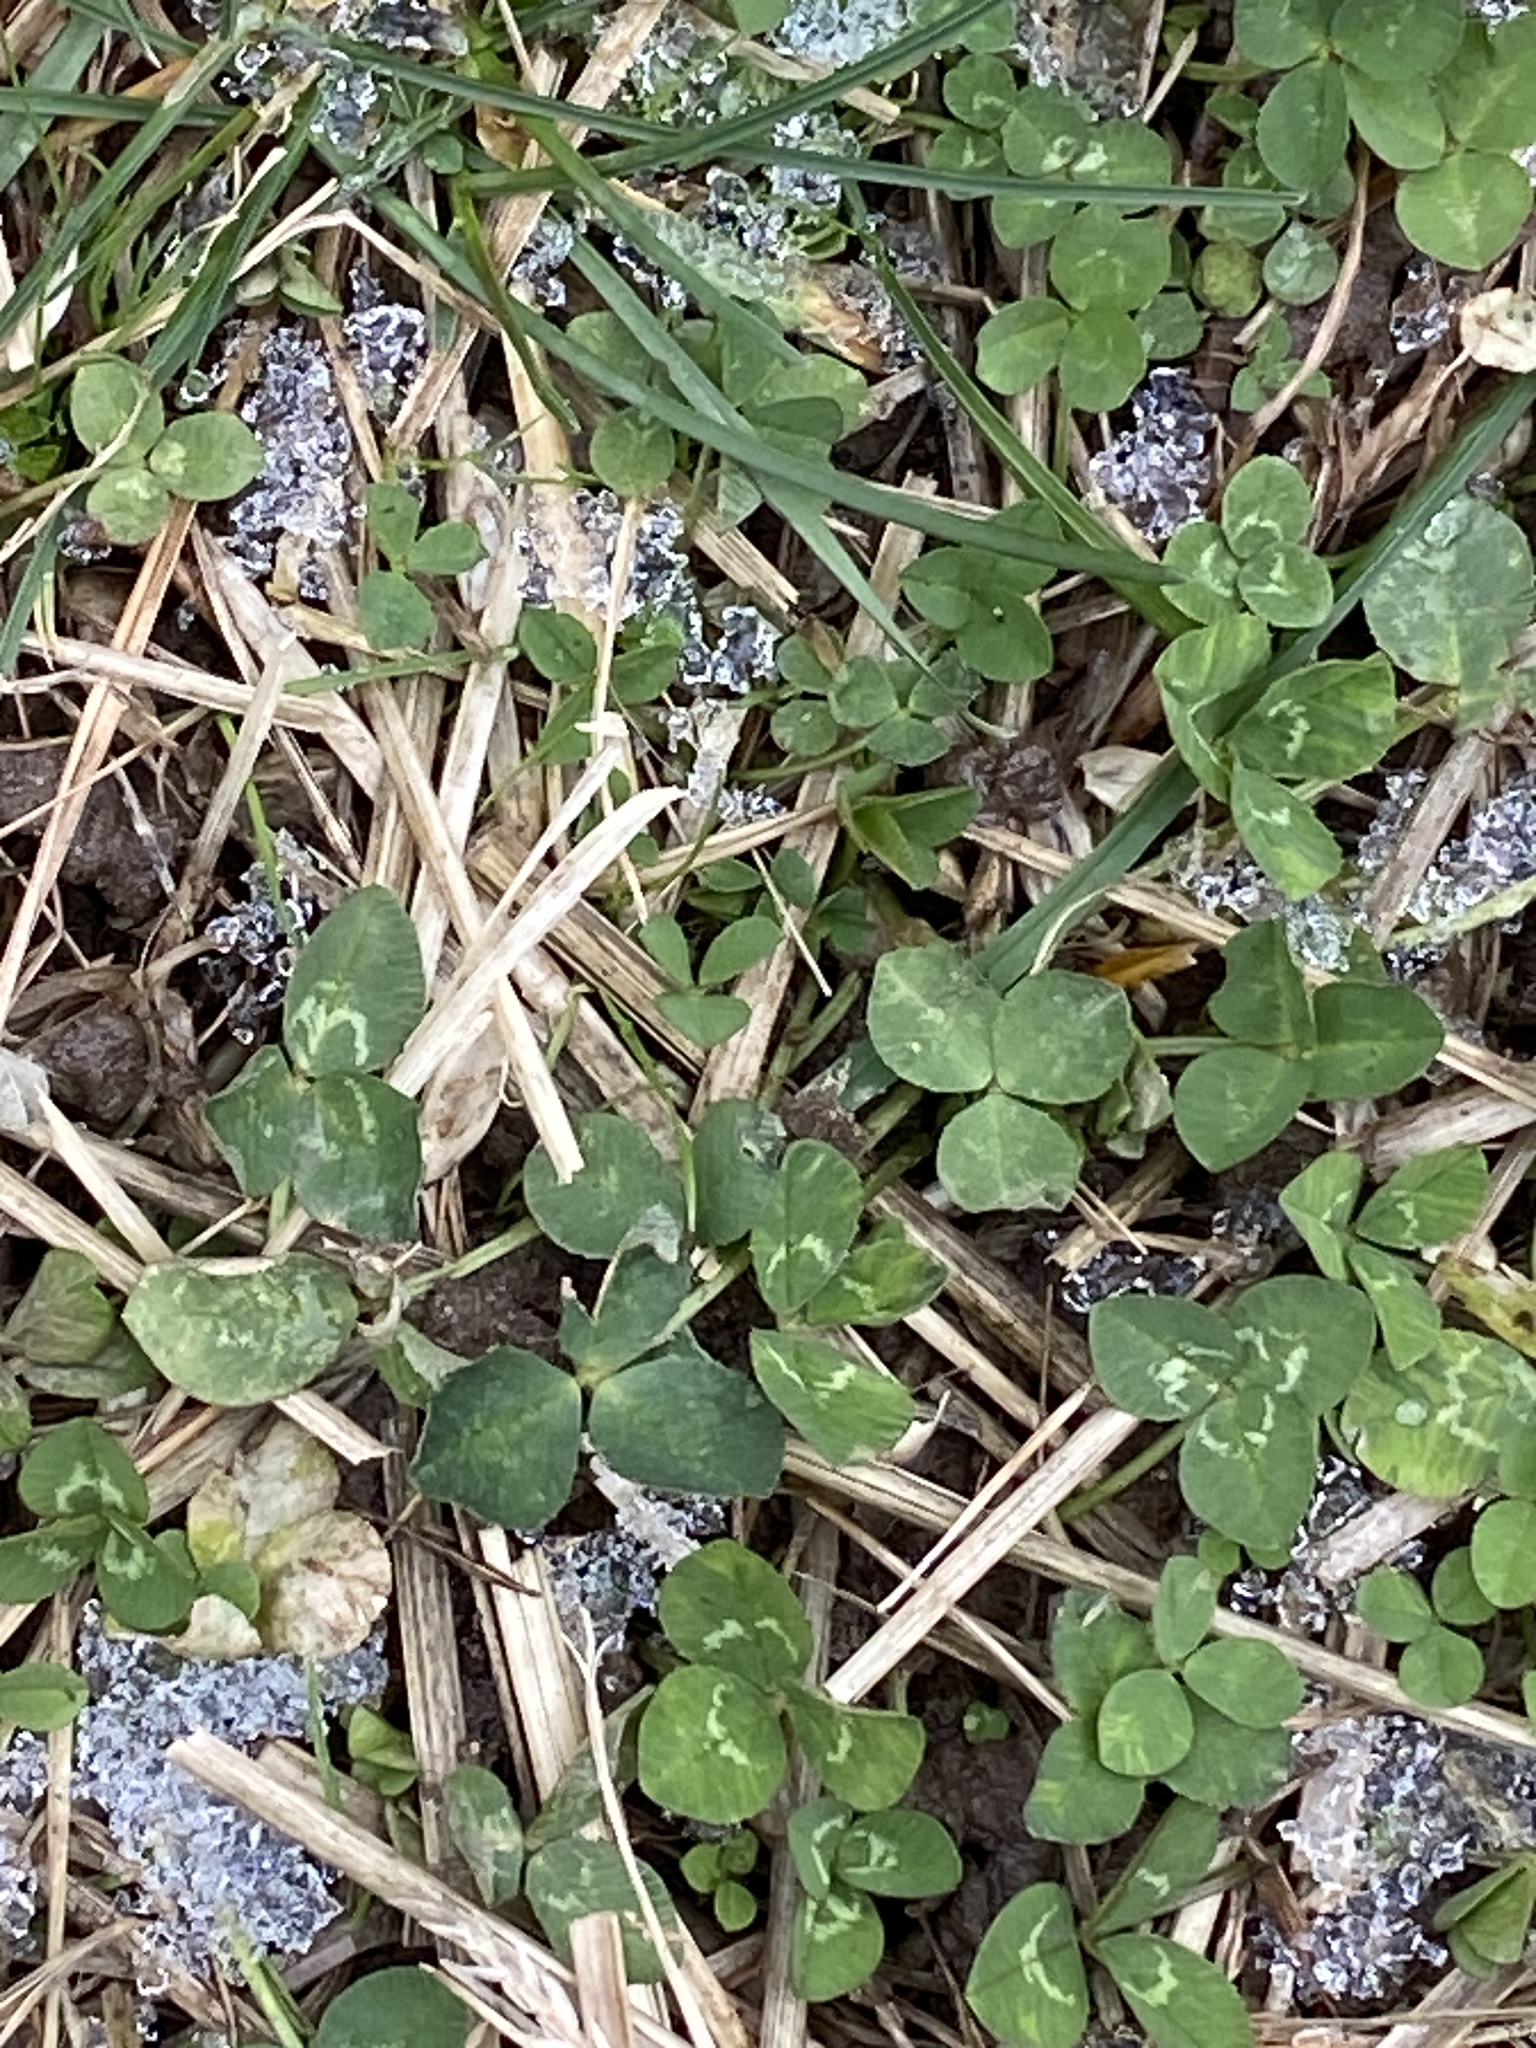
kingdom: Plantae
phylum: Tracheophyta
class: Magnoliopsida
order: Fabales
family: Fabaceae
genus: Trifolium
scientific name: Trifolium repens
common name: White clover
